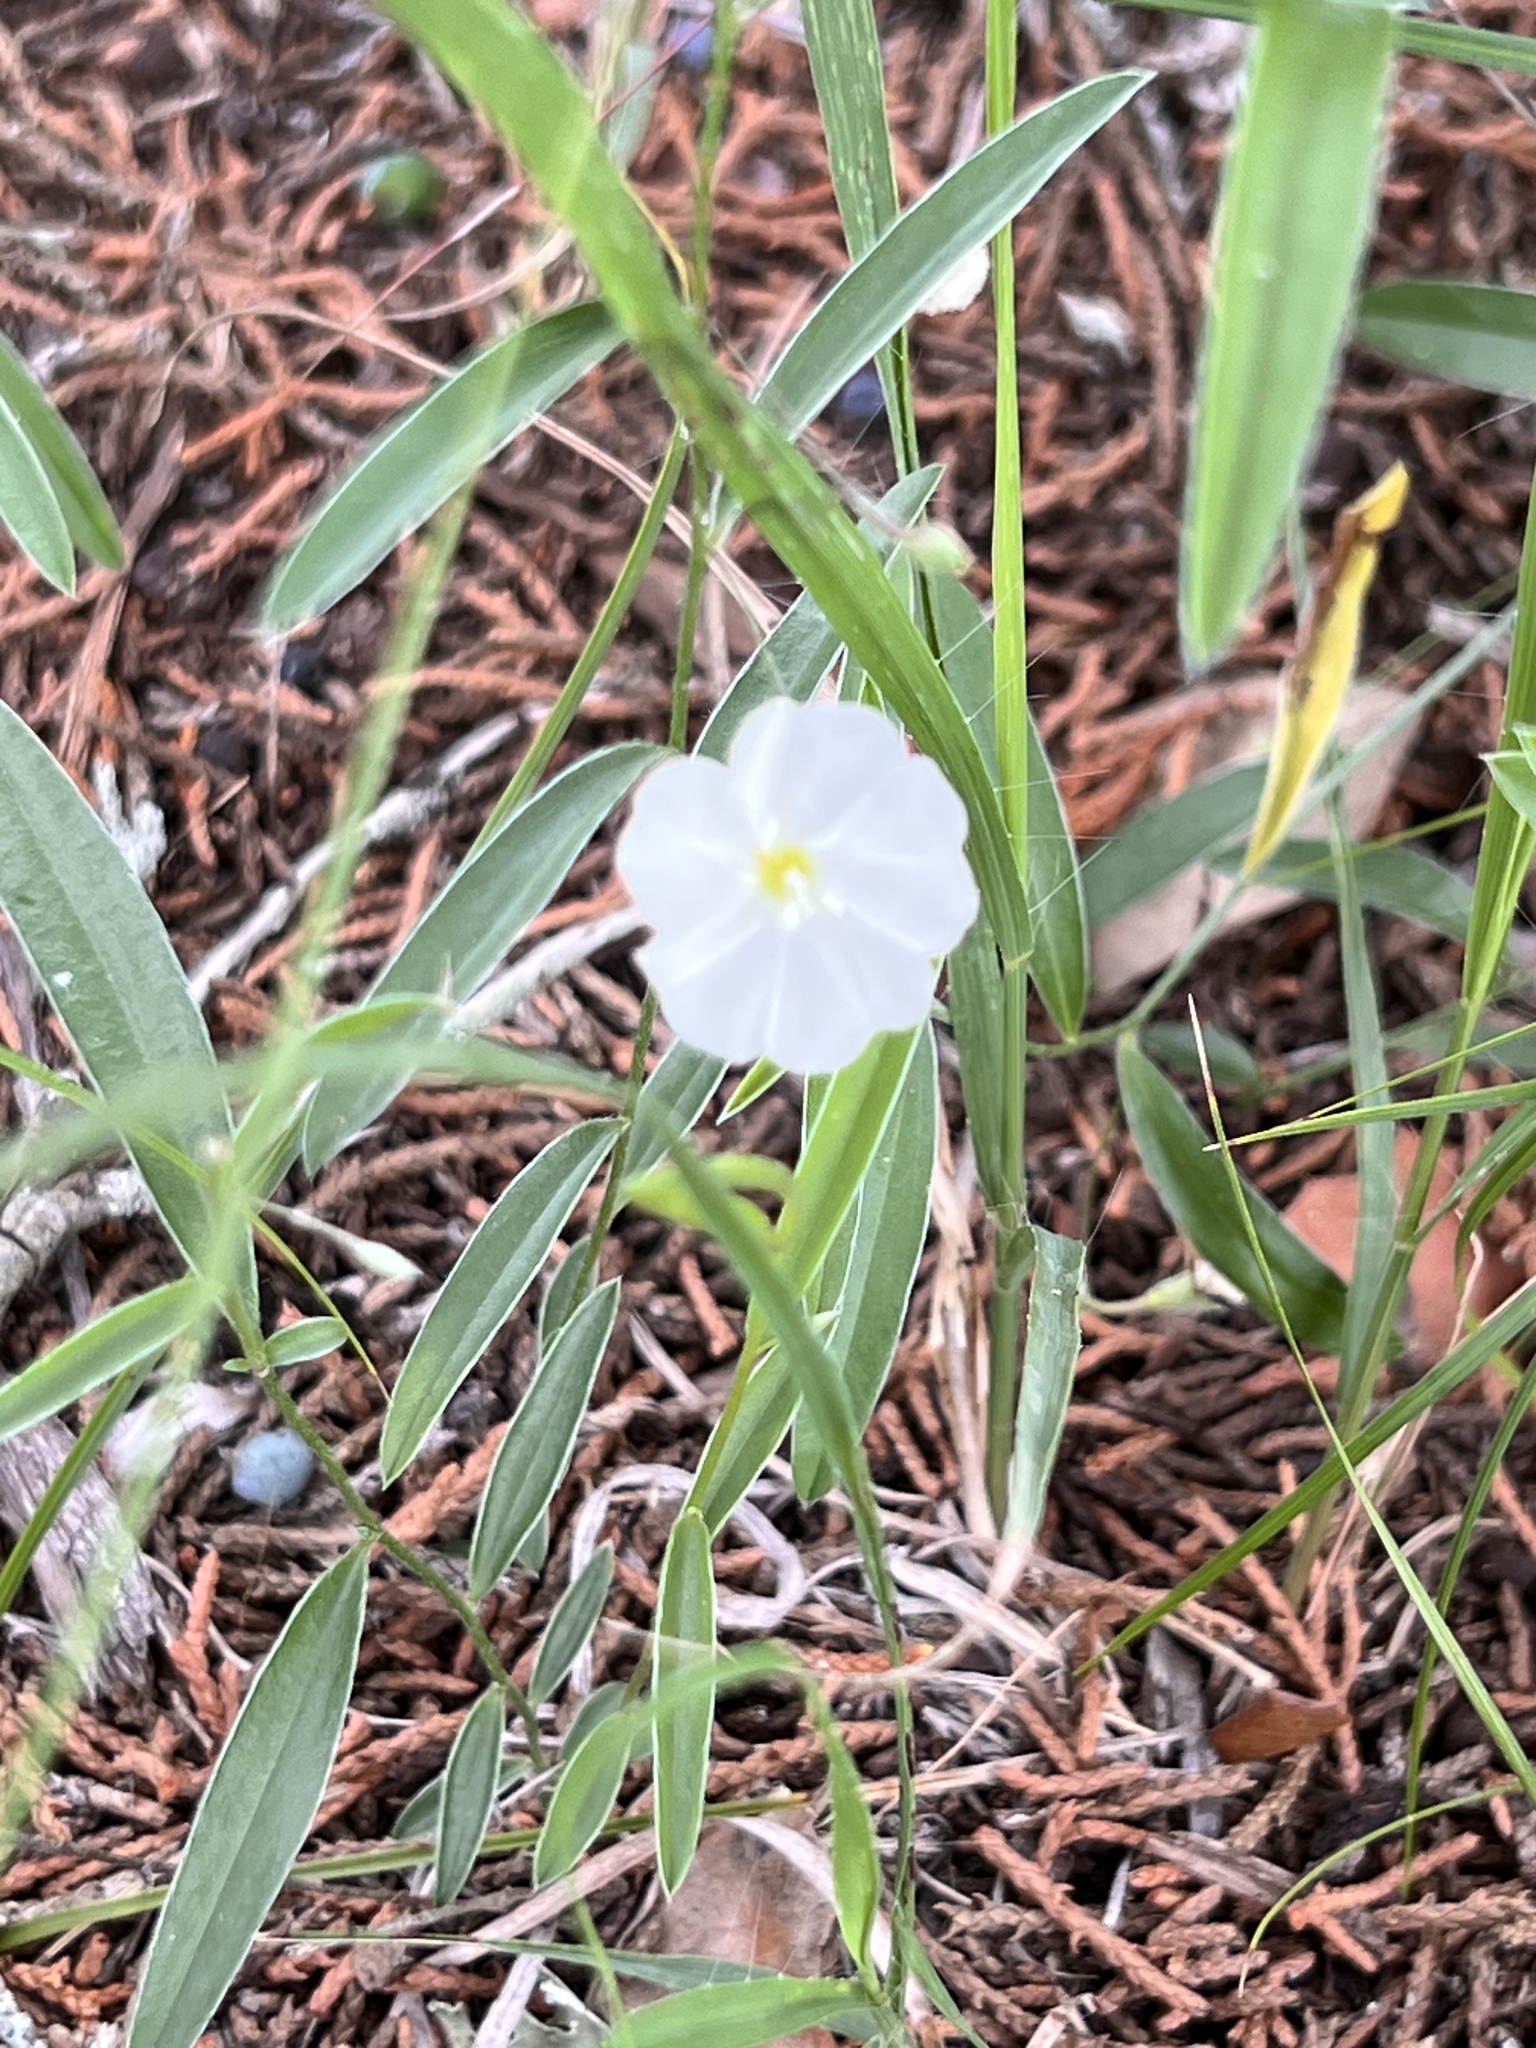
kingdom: Plantae
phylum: Tracheophyta
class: Magnoliopsida
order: Solanales
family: Convolvulaceae
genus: Evolvulus
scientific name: Evolvulus sericeus
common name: Blue dots
